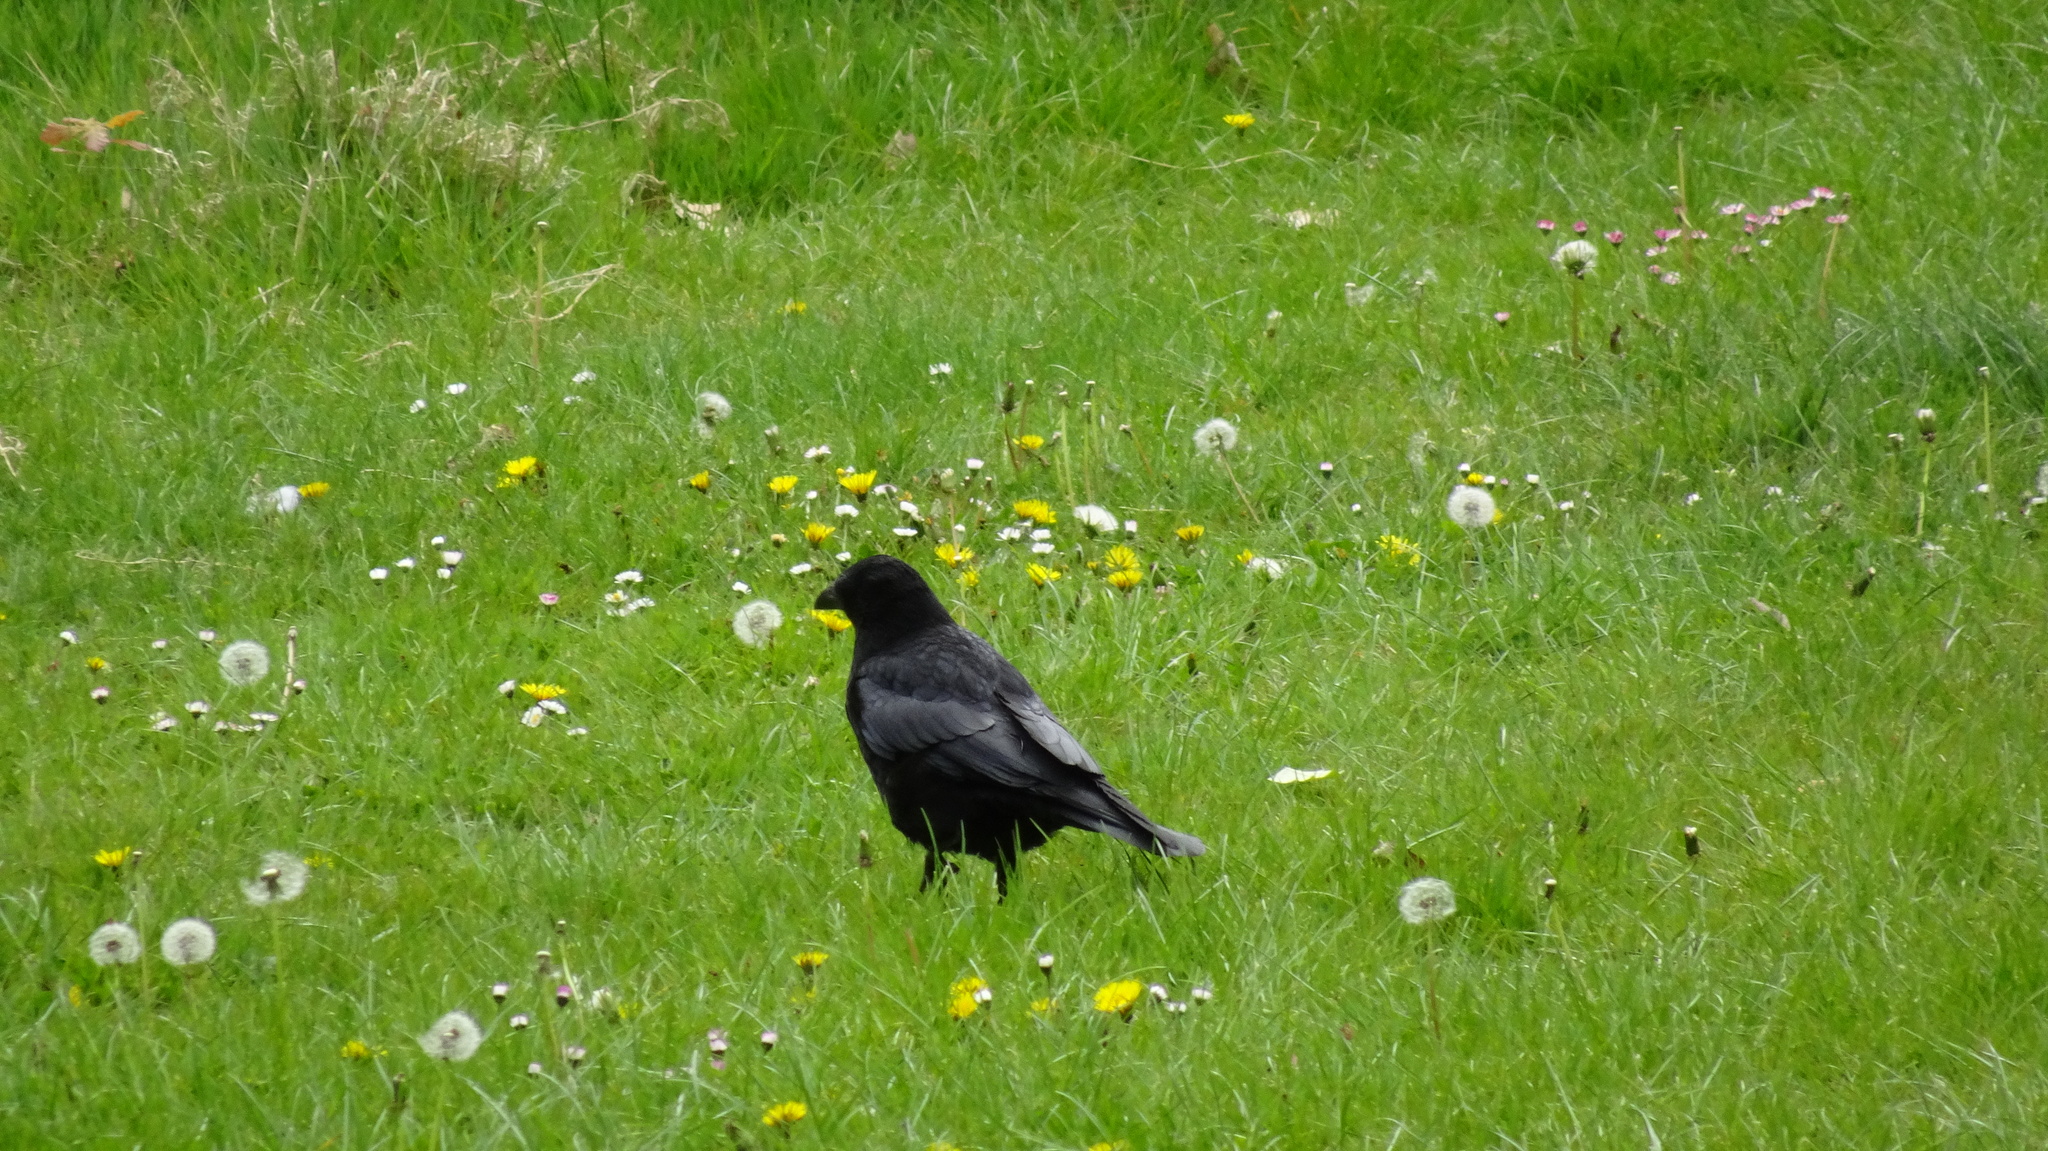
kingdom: Animalia
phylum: Chordata
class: Aves
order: Passeriformes
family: Corvidae
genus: Corvus
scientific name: Corvus corone
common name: Carrion crow
